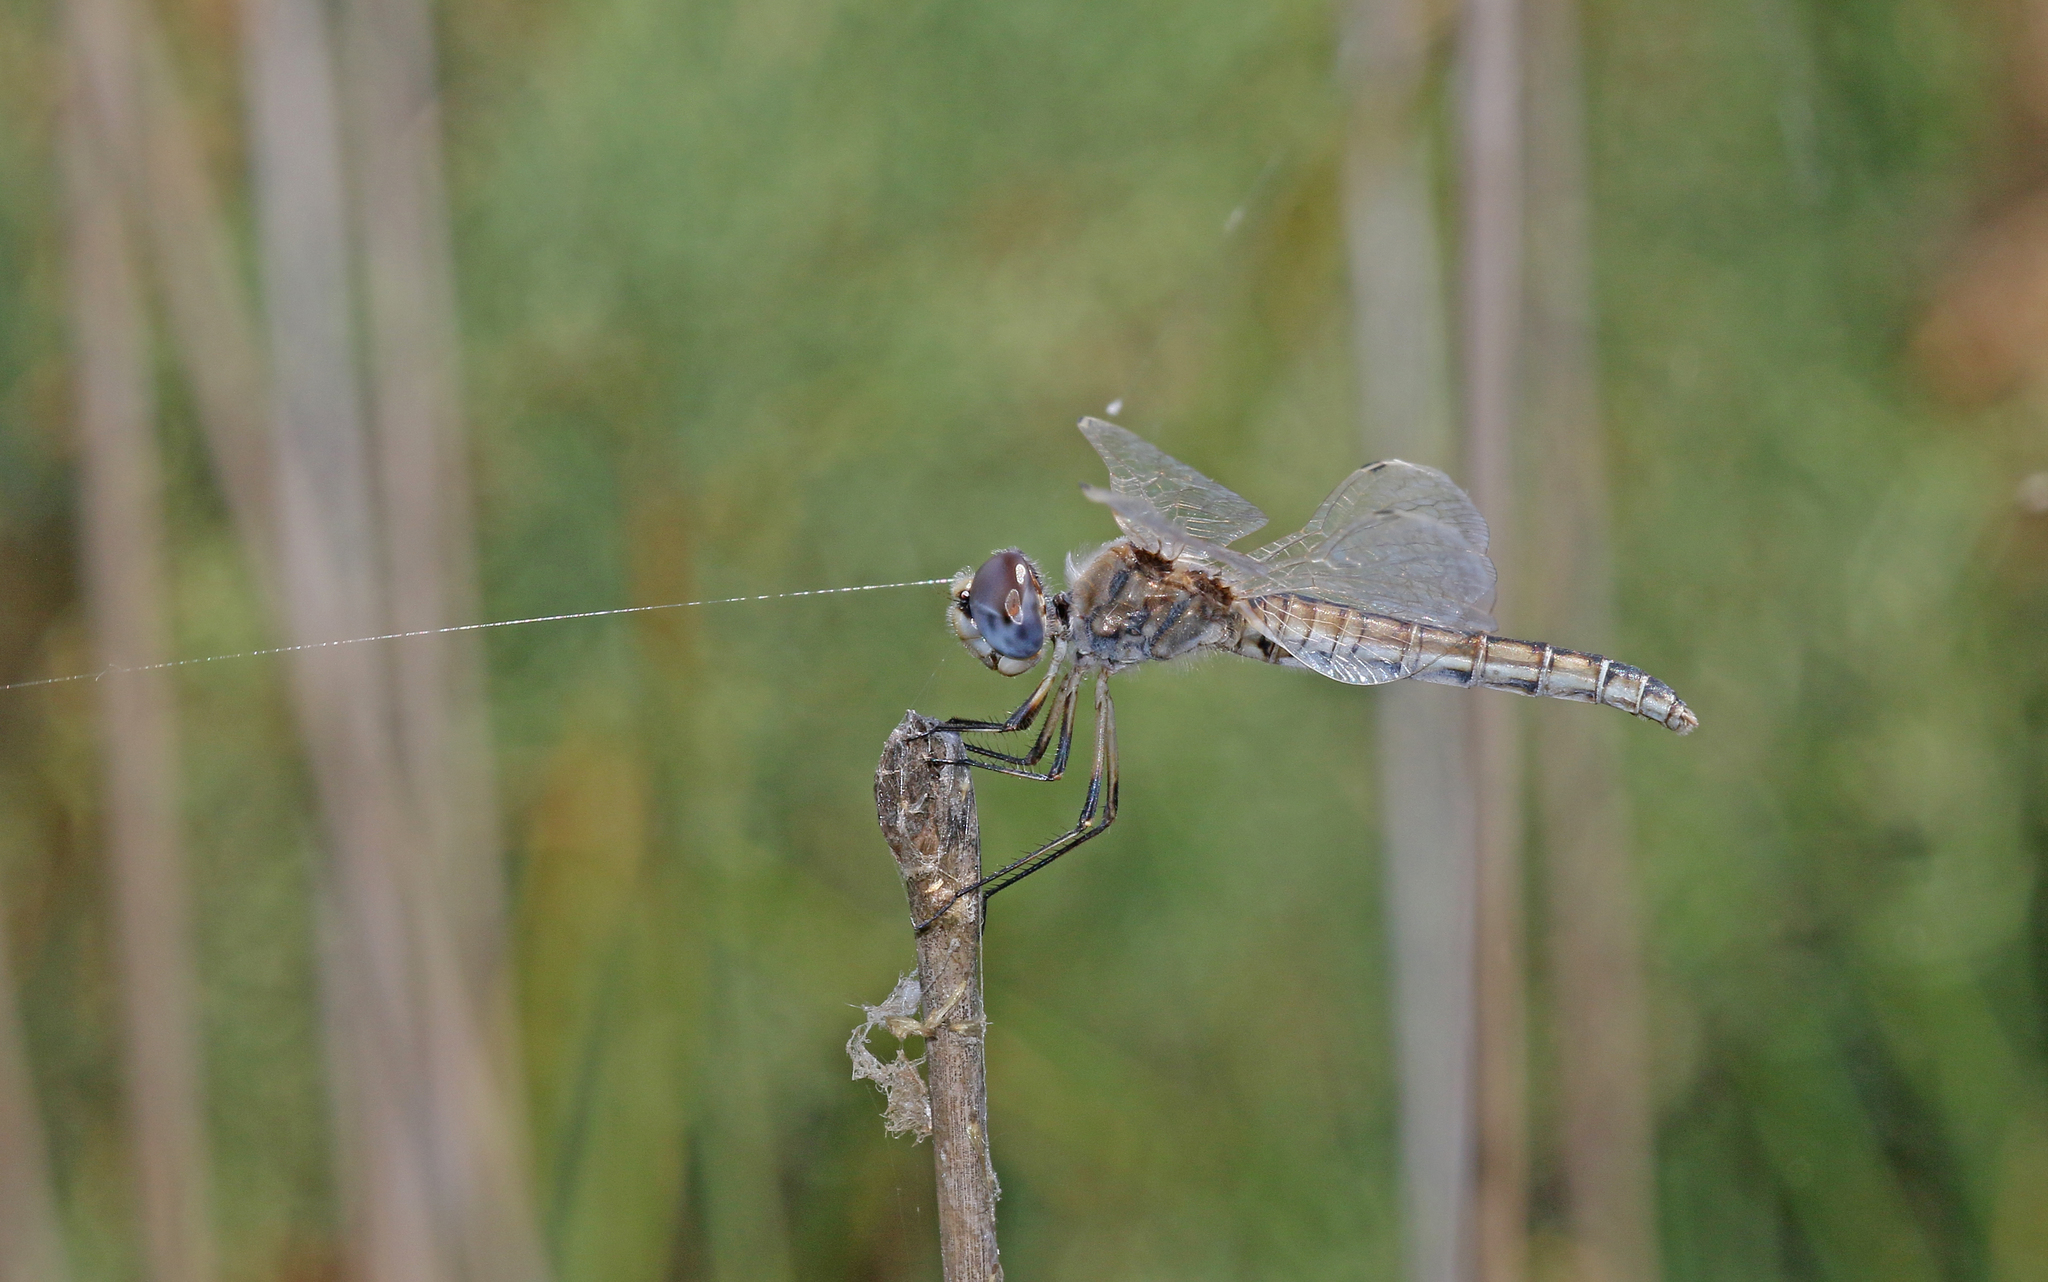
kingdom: Animalia
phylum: Arthropoda
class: Insecta
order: Odonata
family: Libellulidae
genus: Selysiothemis
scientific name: Selysiothemis nigra
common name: Black pennant
